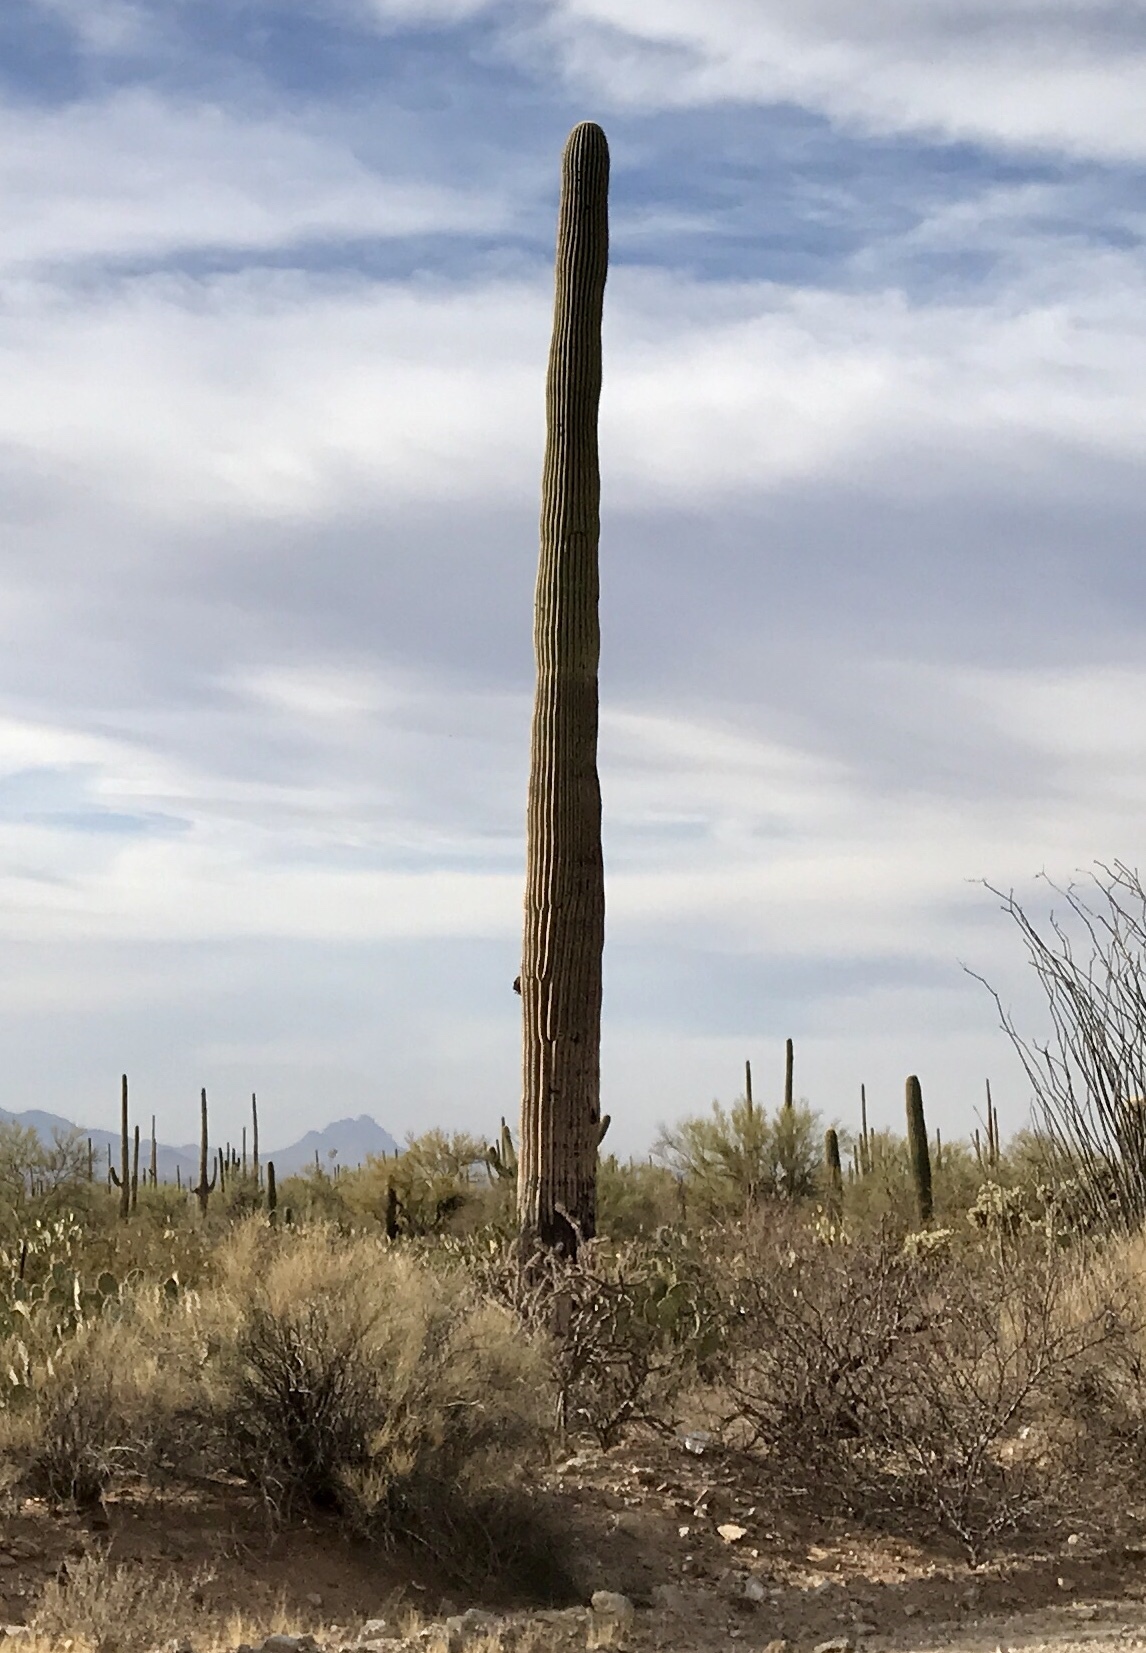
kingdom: Plantae
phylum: Tracheophyta
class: Magnoliopsida
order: Caryophyllales
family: Cactaceae
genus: Carnegiea
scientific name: Carnegiea gigantea
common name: Saguaro
